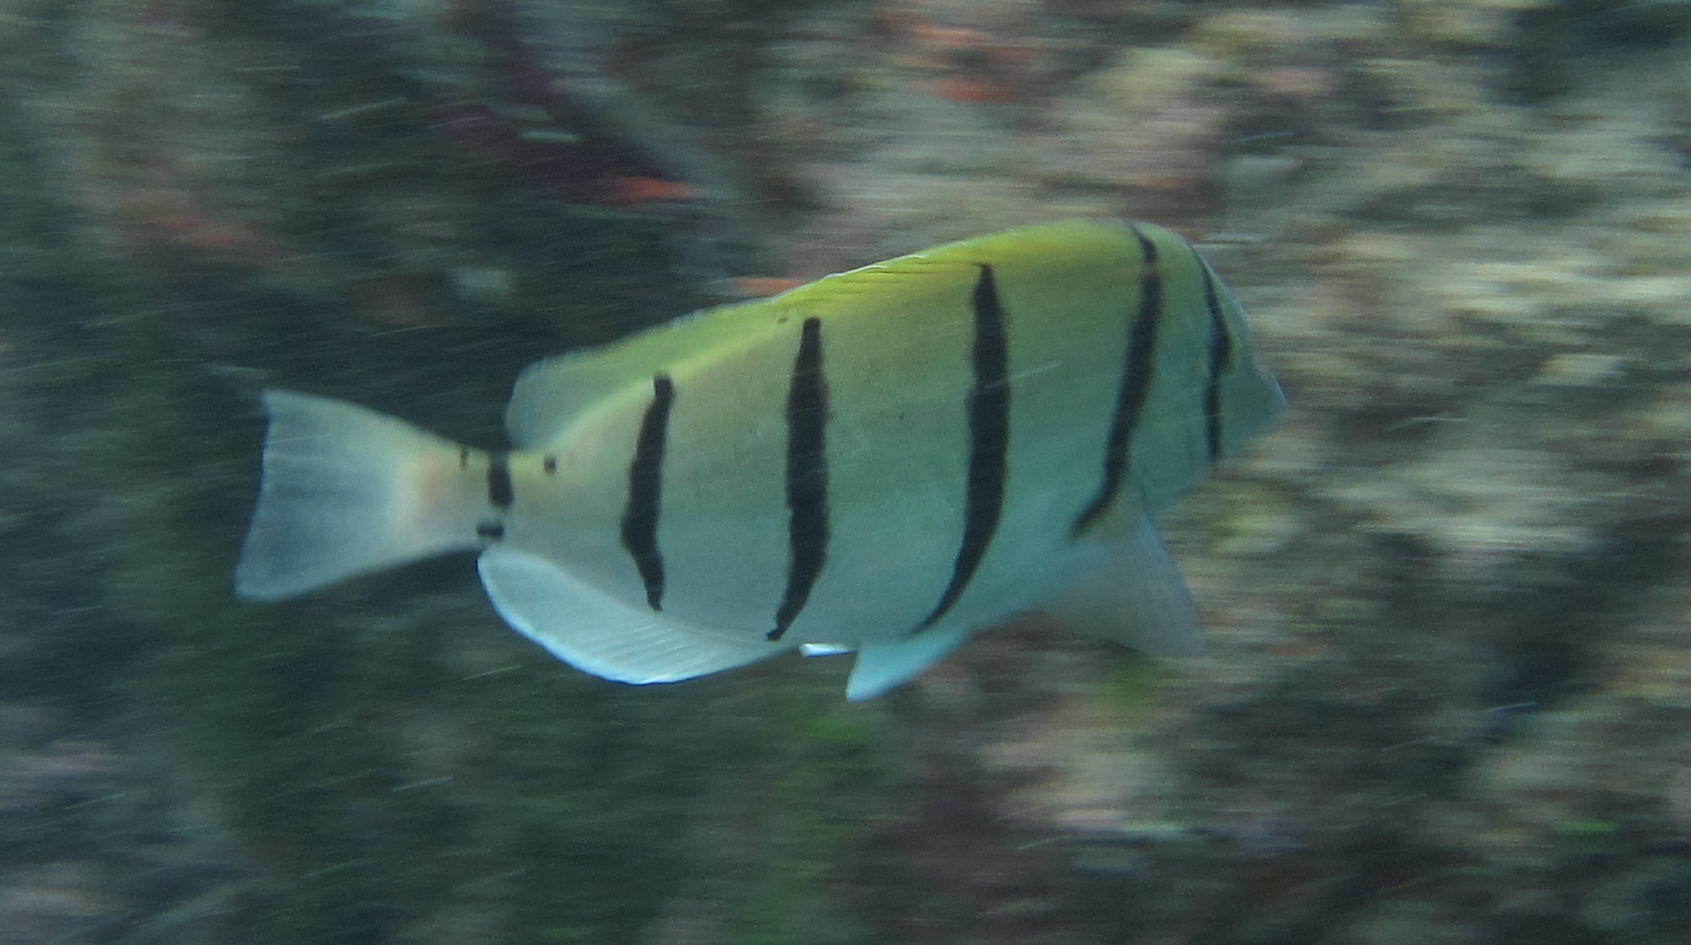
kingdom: Animalia
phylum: Chordata
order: Perciformes
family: Acanthuridae
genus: Acanthurus
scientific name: Acanthurus triostegus
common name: Convict surgeonfish
